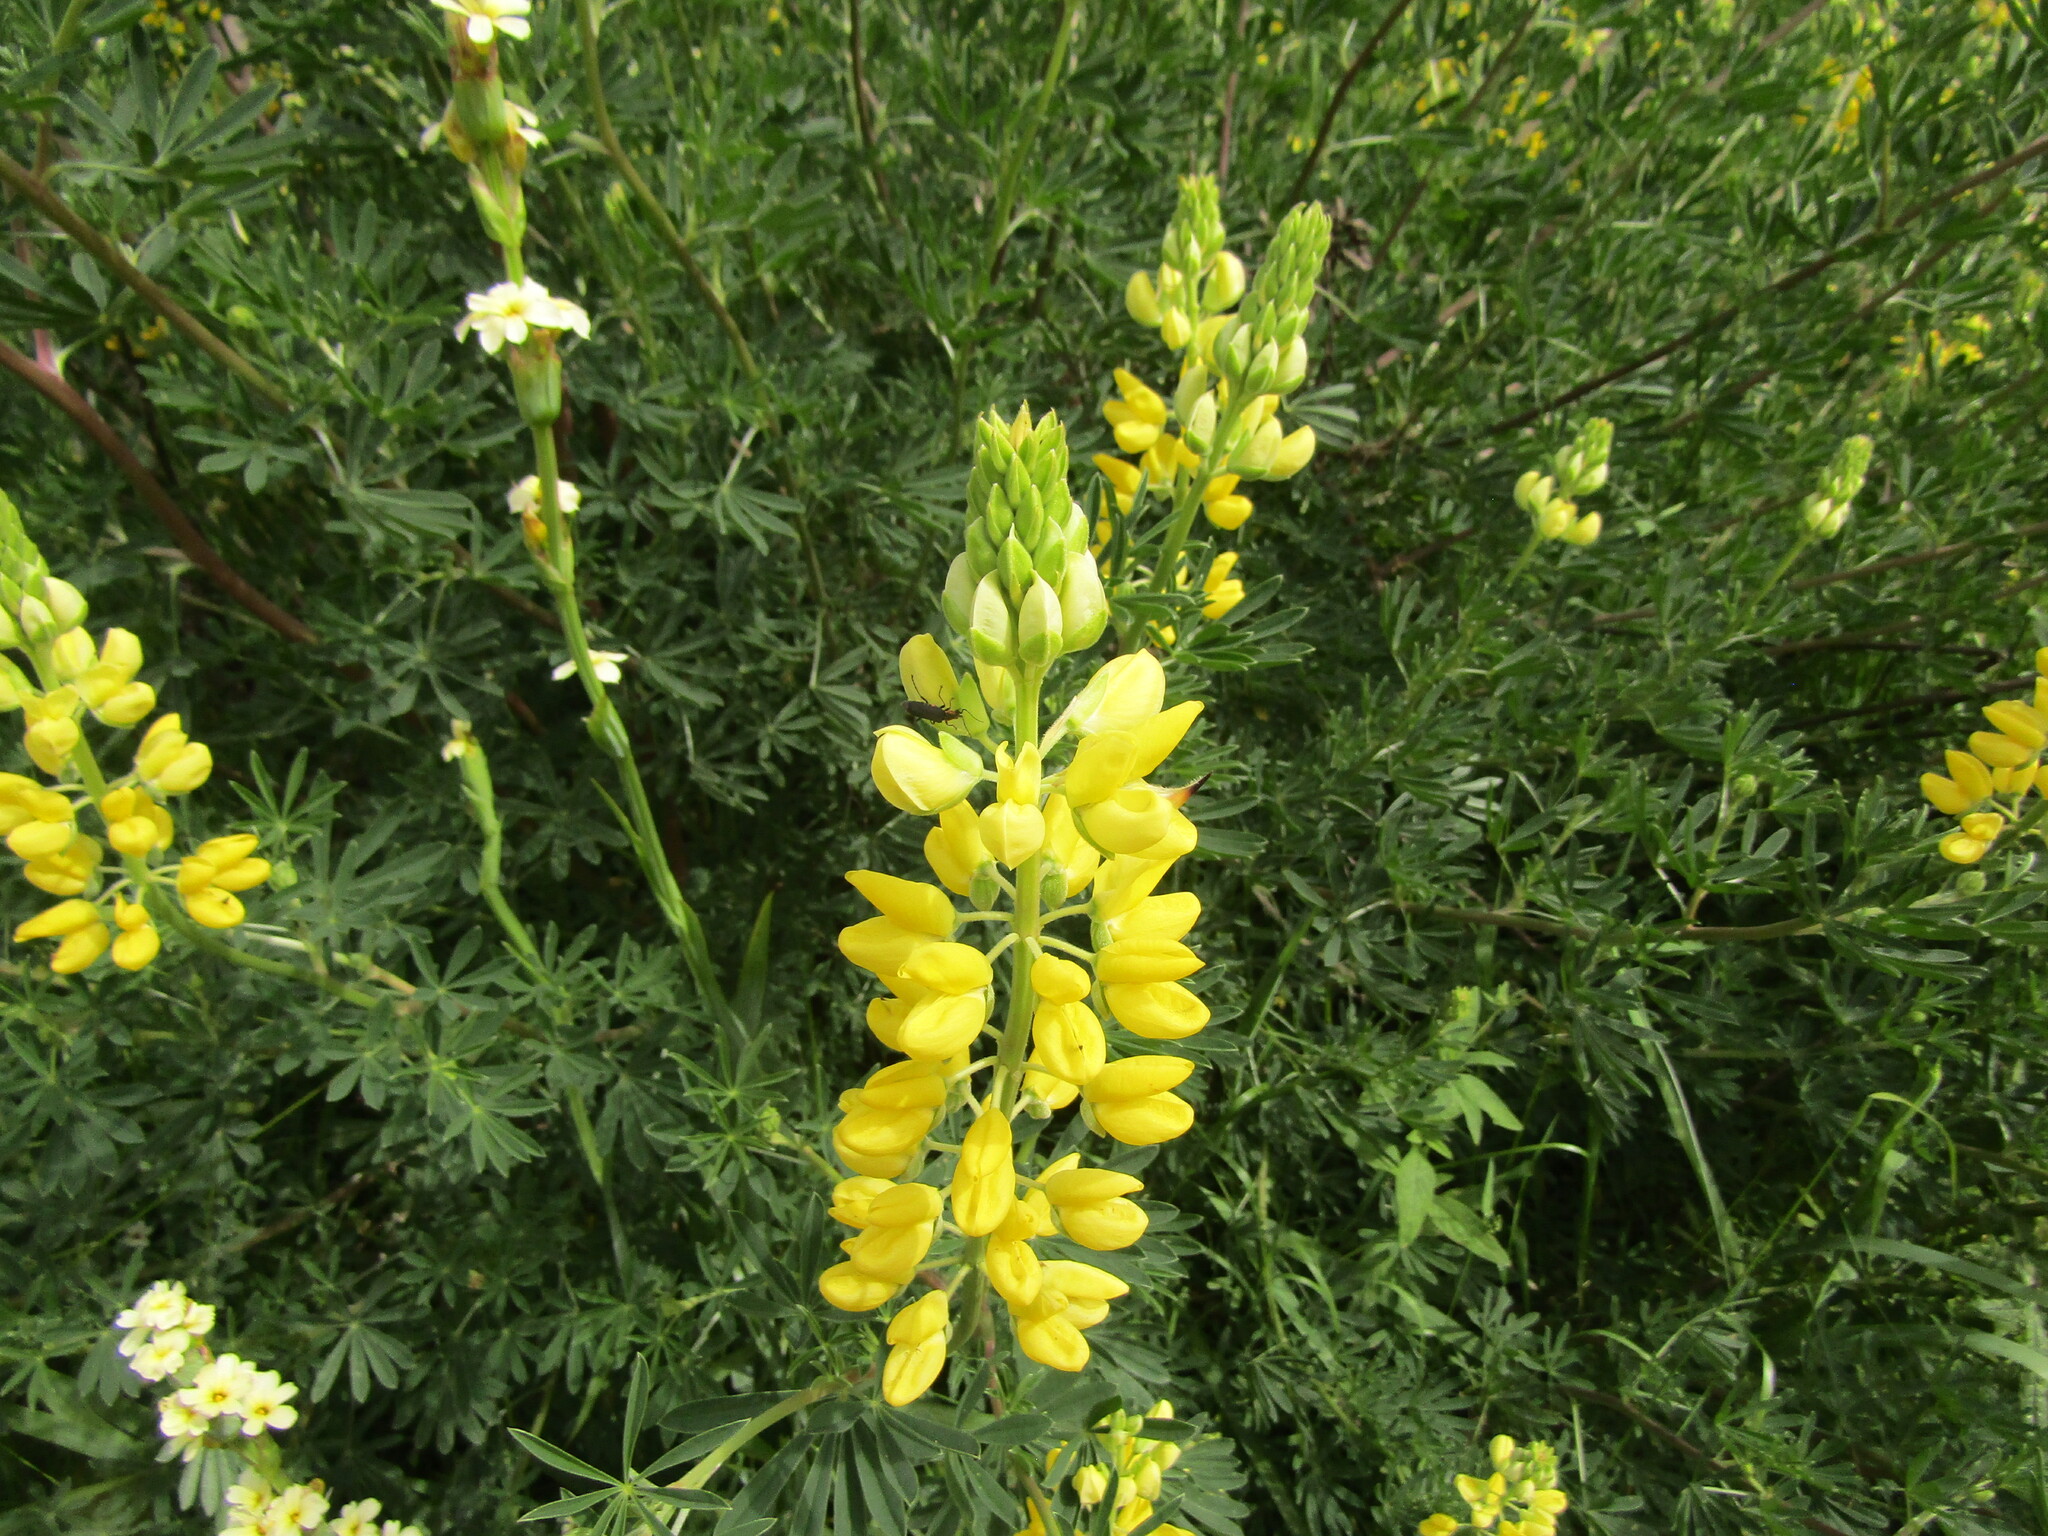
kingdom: Plantae
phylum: Tracheophyta
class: Magnoliopsida
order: Fabales
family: Fabaceae
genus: Lupinus
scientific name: Lupinus arboreus
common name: Yellow bush lupine
